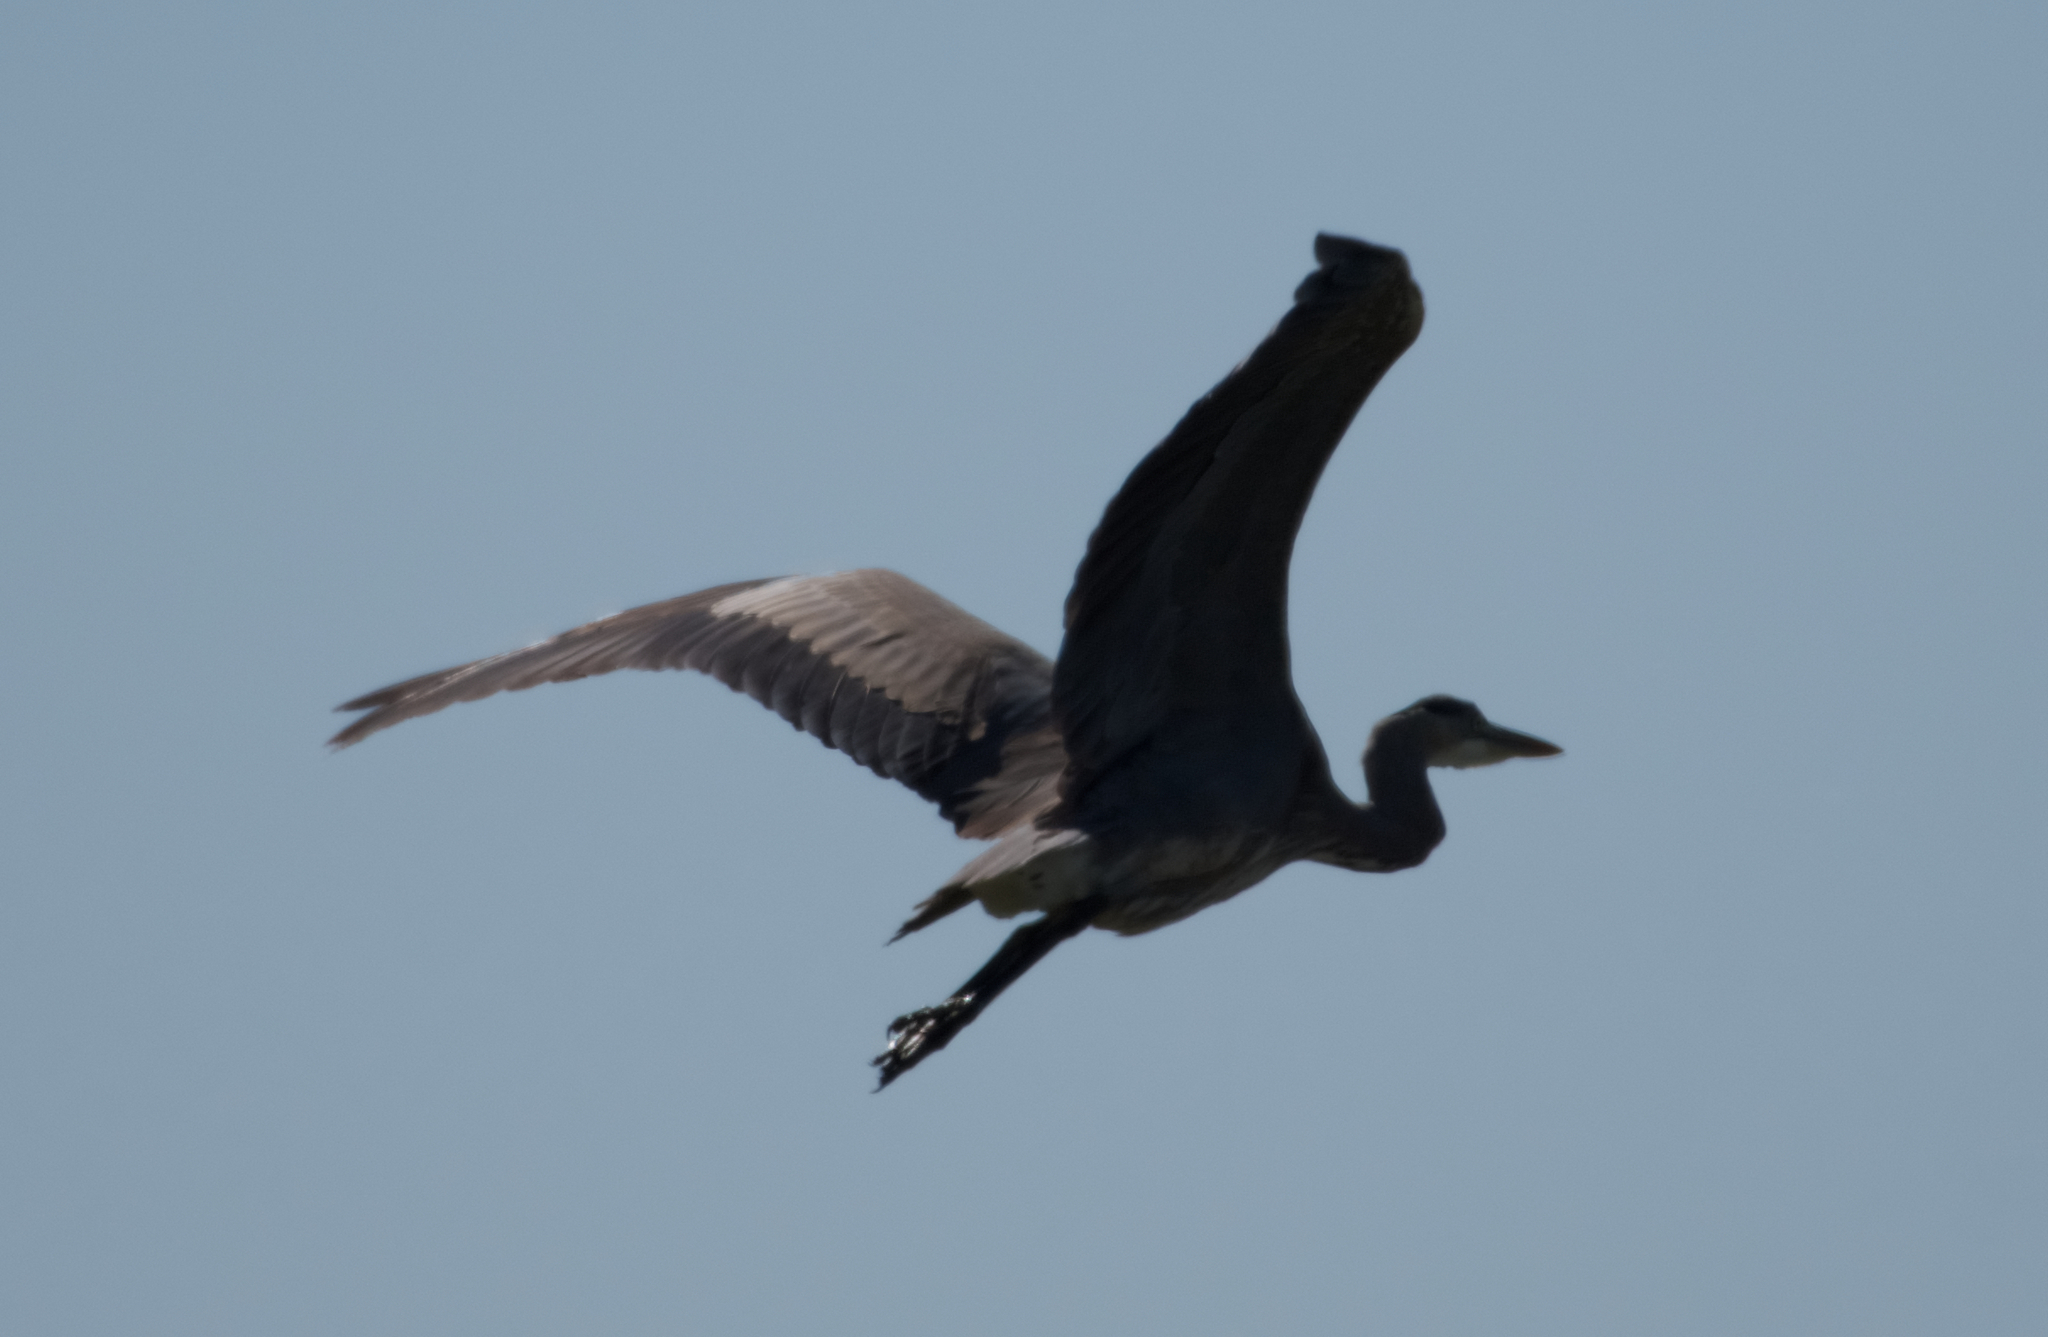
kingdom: Animalia
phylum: Chordata
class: Aves
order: Pelecaniformes
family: Ardeidae
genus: Ardea
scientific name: Ardea herodias
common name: Great blue heron
